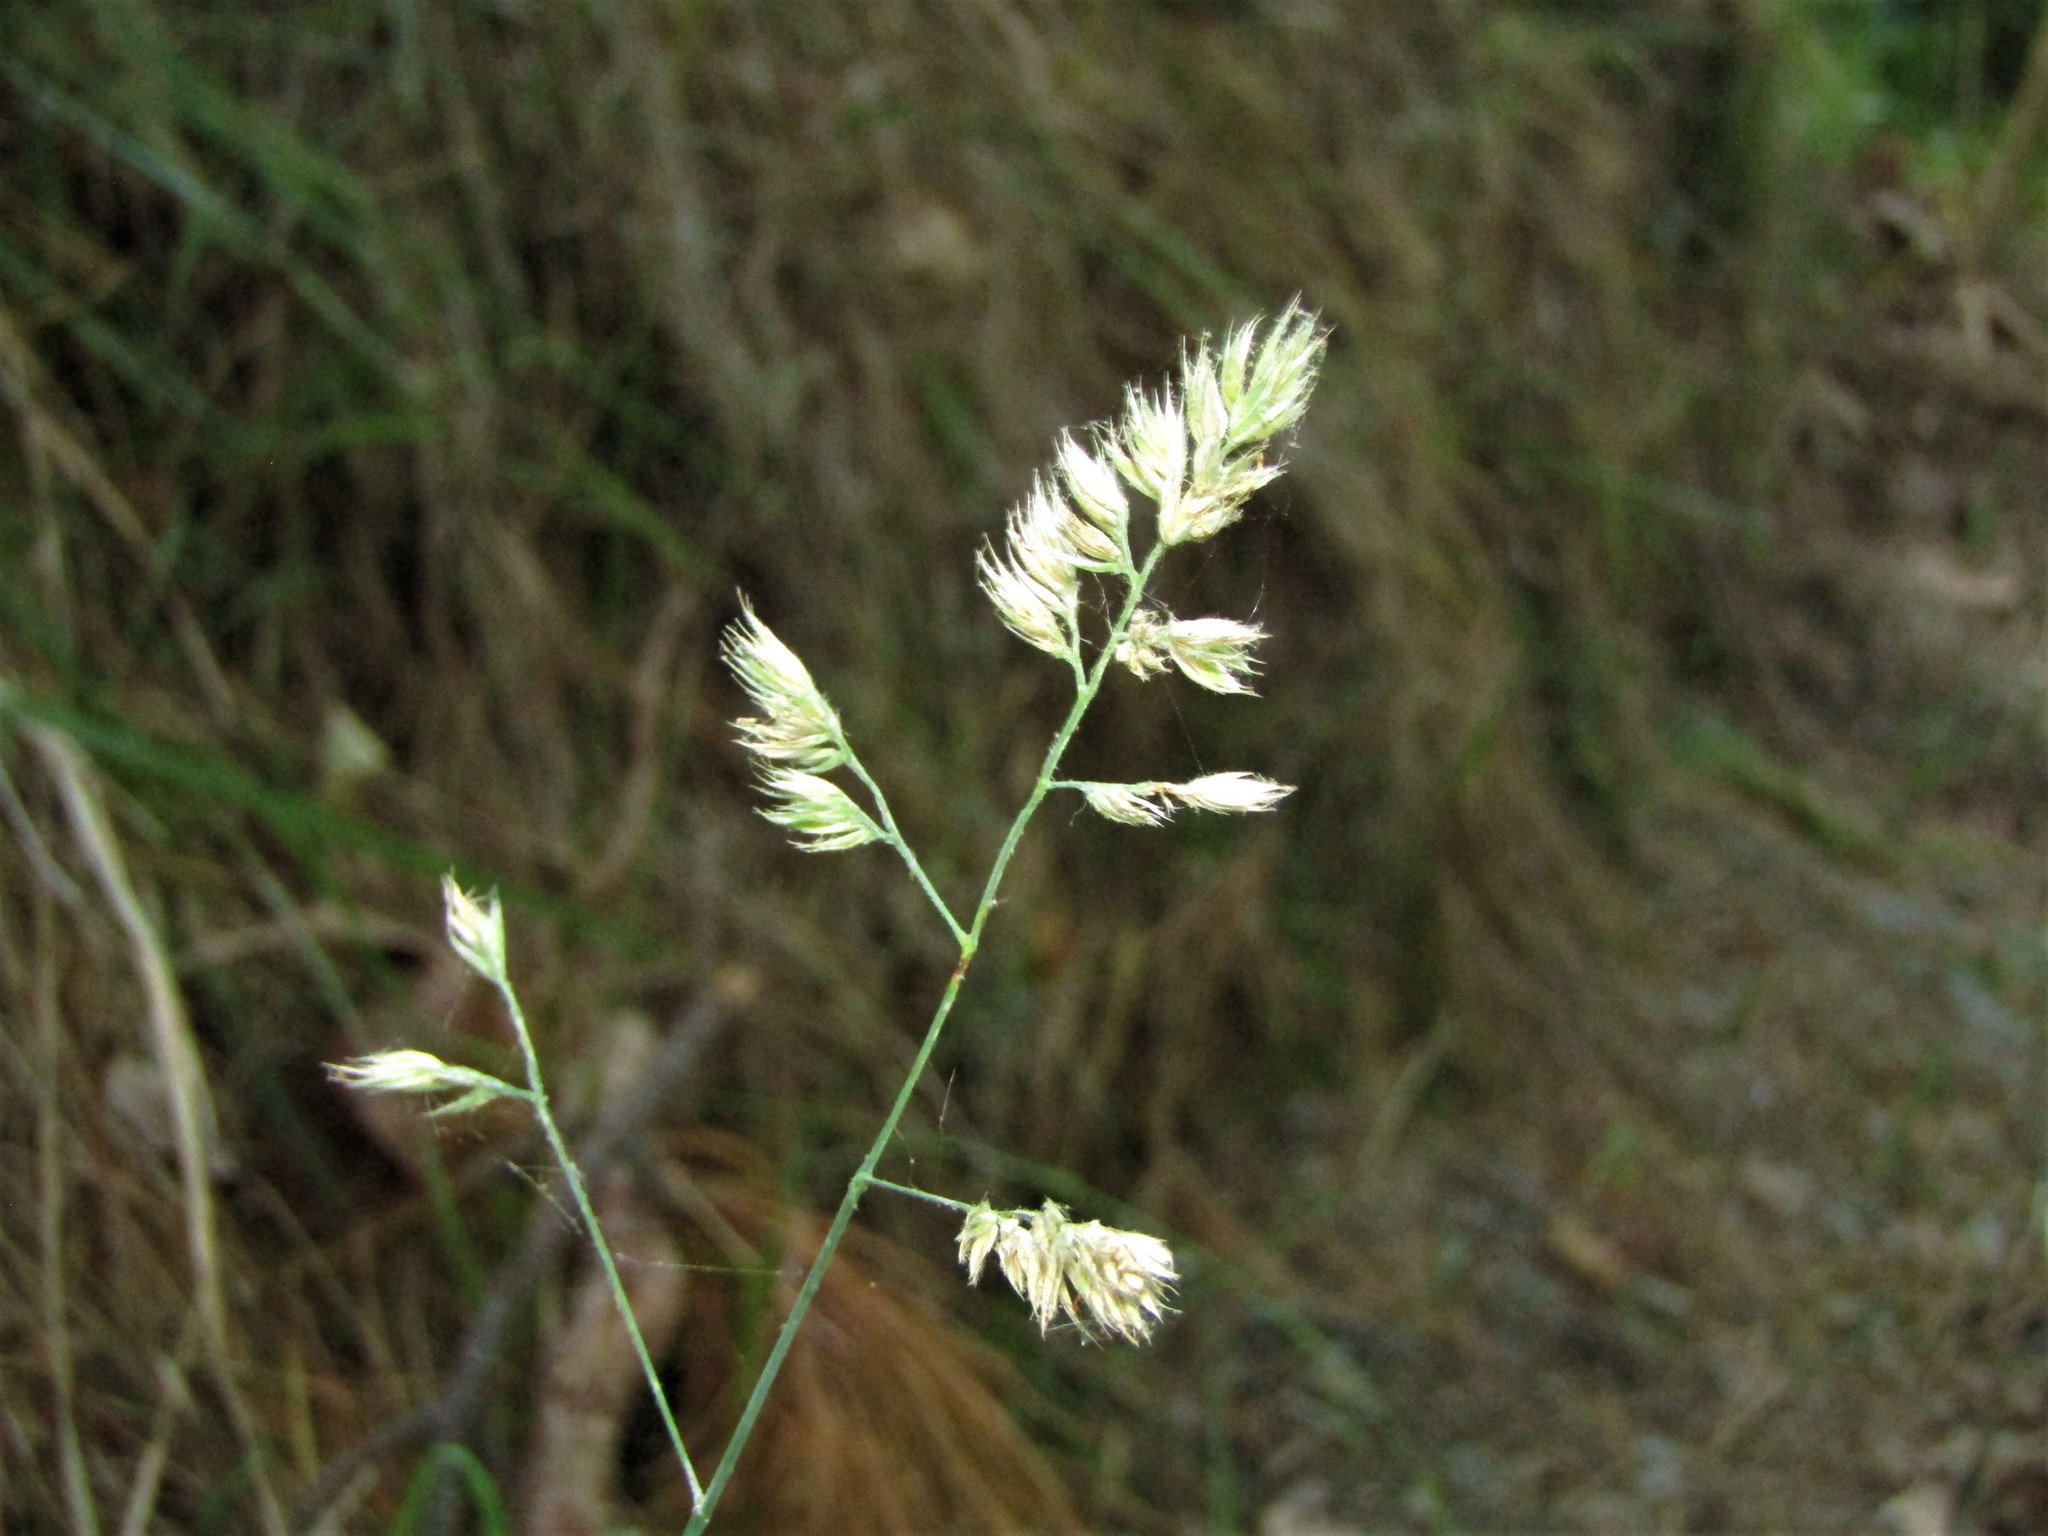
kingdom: Plantae
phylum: Tracheophyta
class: Liliopsida
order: Poales
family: Poaceae
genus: Dactylis
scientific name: Dactylis glomerata
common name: Orchardgrass
